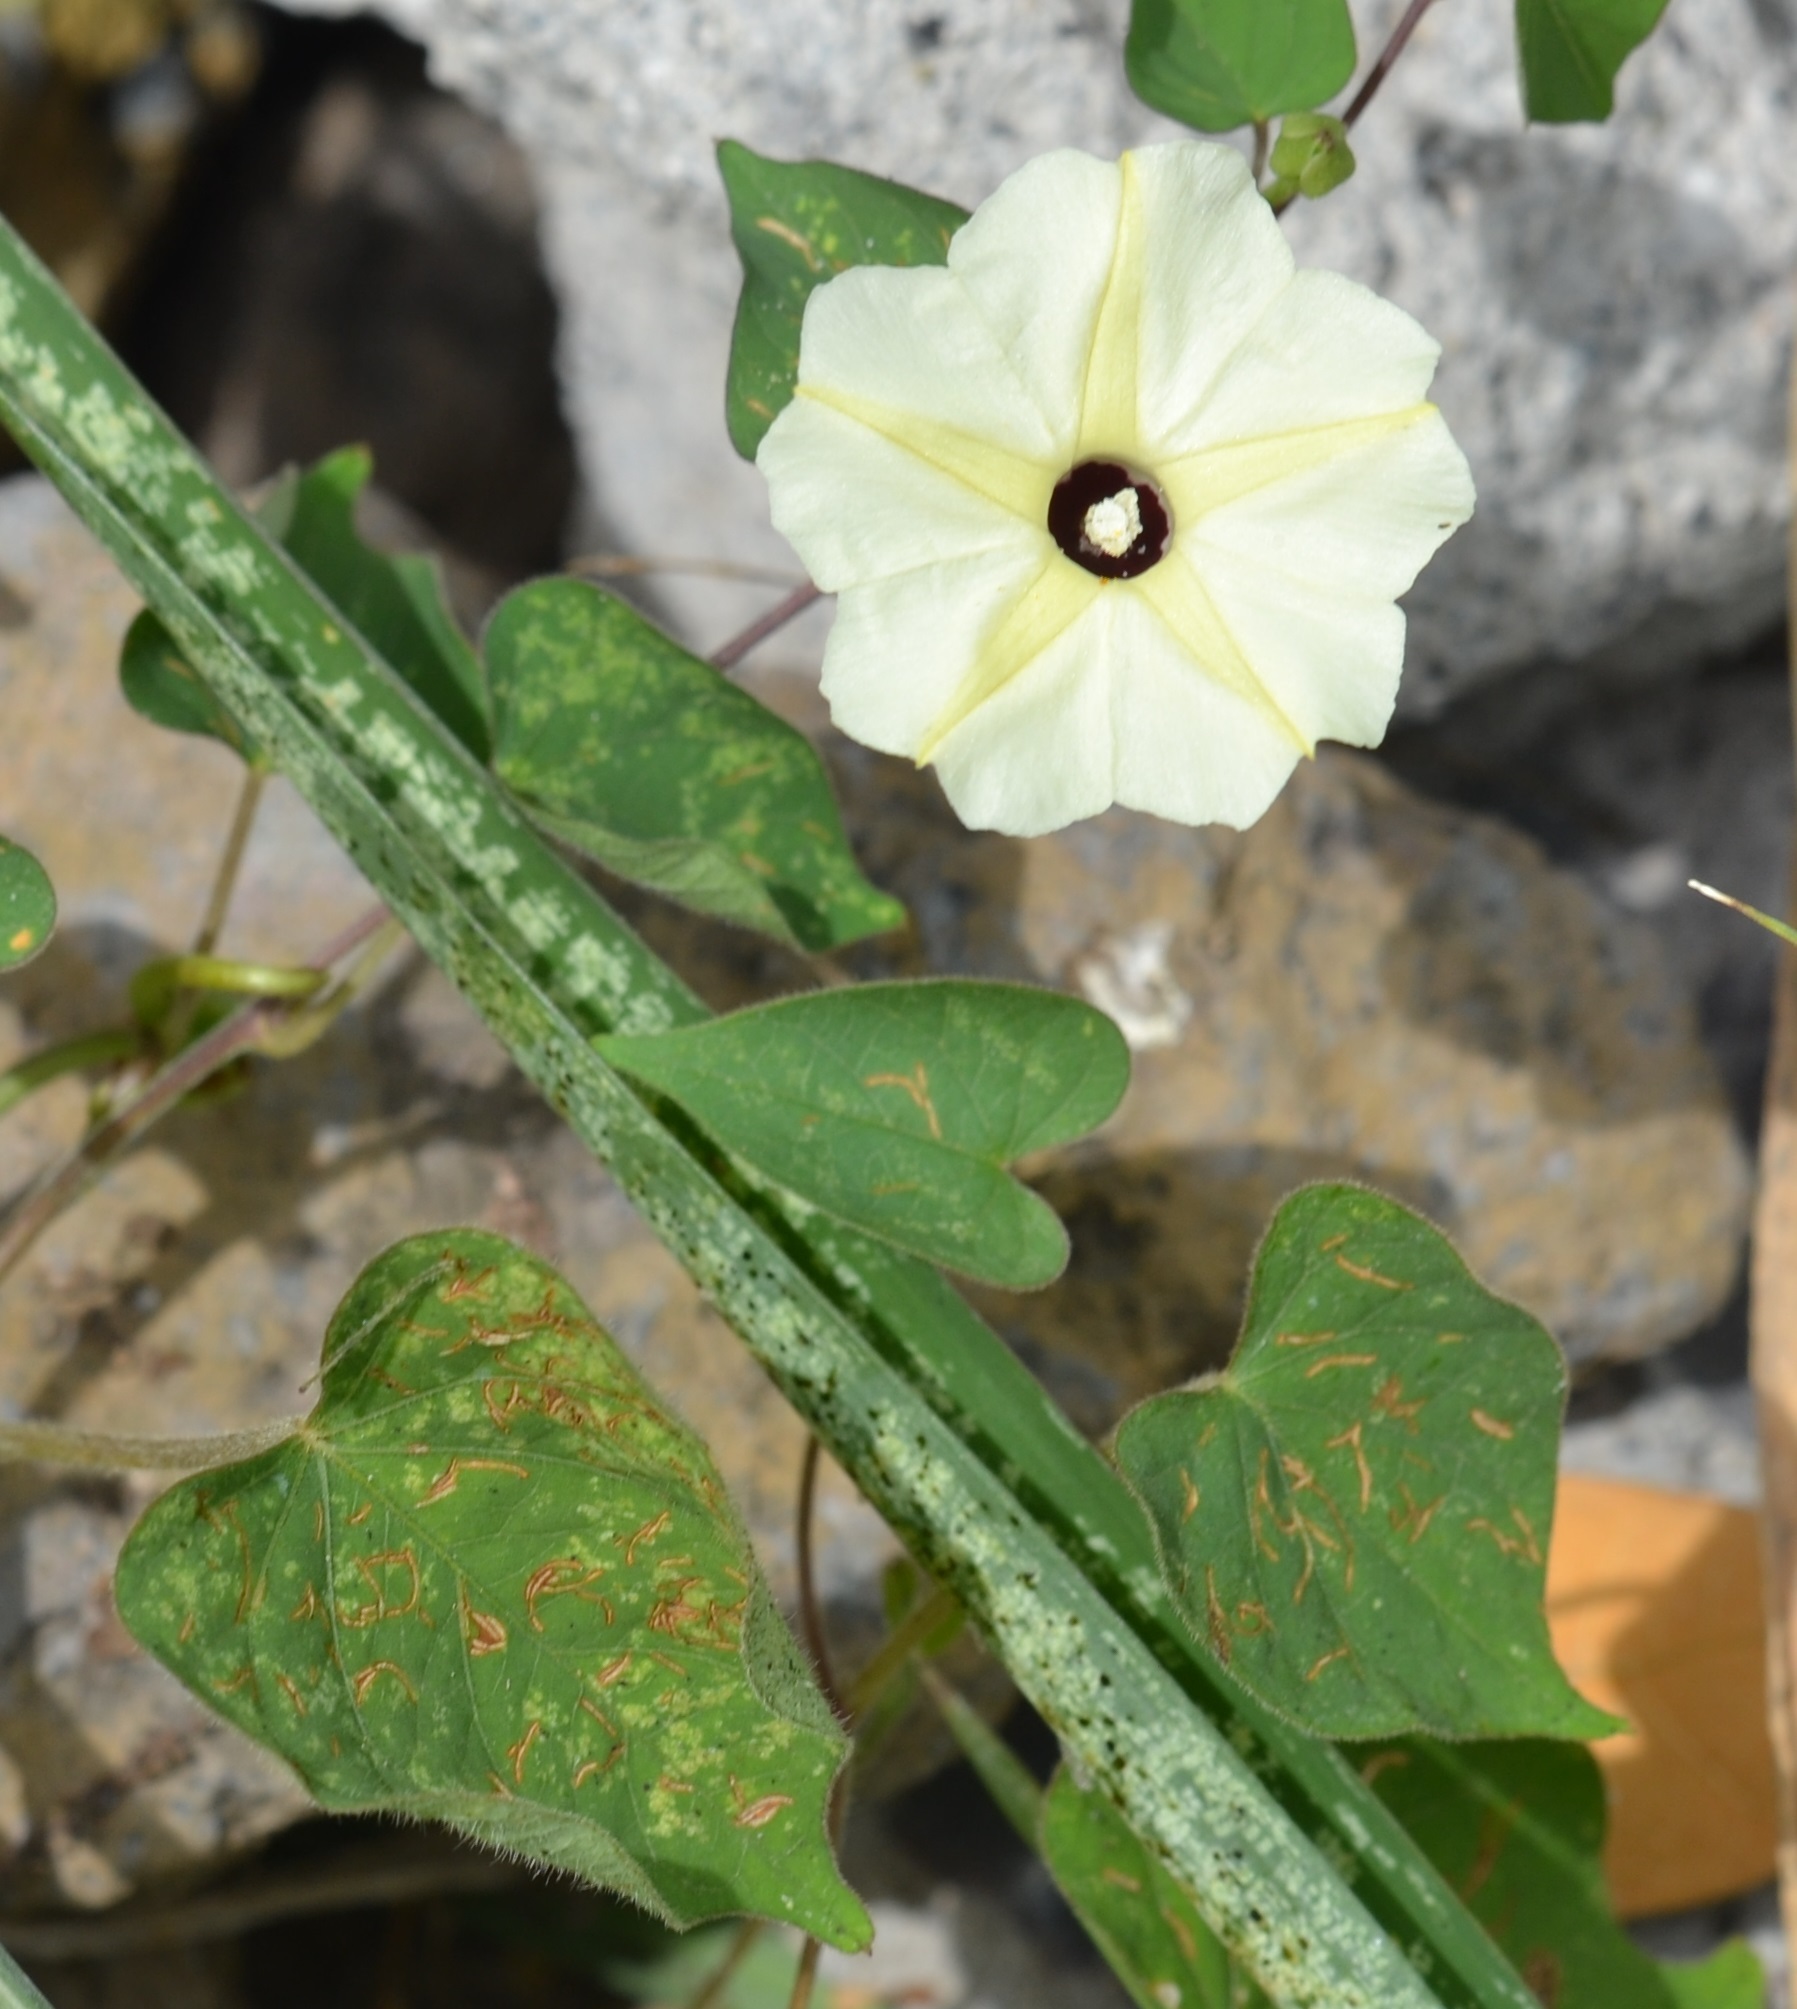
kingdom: Plantae
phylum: Tracheophyta
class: Magnoliopsida
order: Solanales
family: Convolvulaceae
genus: Ipomoea
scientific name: Ipomoea obscura
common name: Obscure morning-glory
